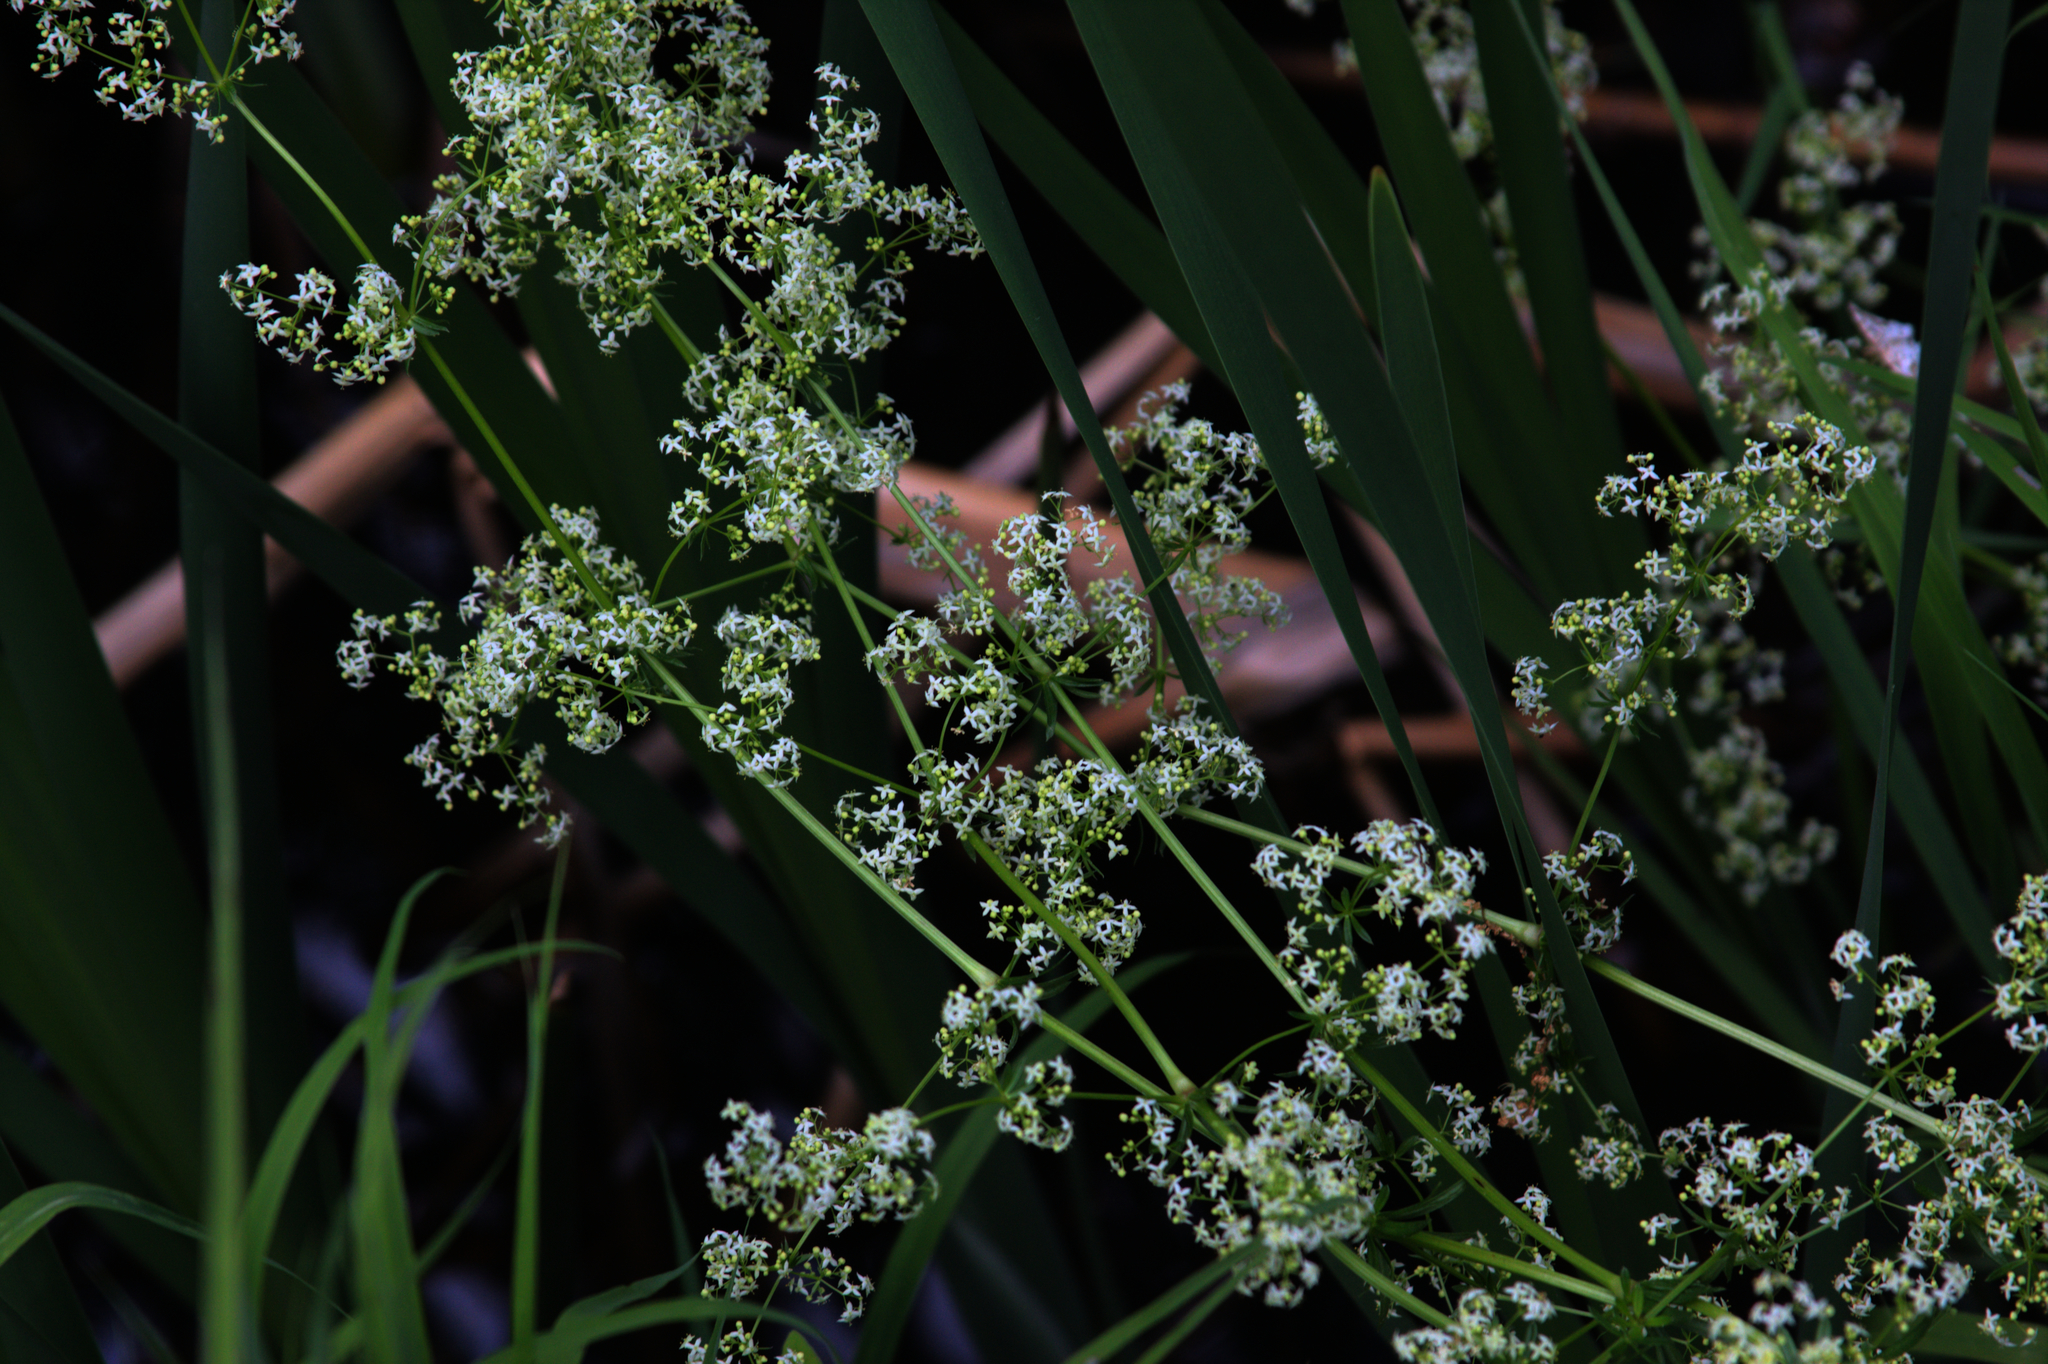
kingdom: Plantae
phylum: Tracheophyta
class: Magnoliopsida
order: Gentianales
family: Rubiaceae
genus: Galium
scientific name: Galium mollugo
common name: Hedge bedstraw
